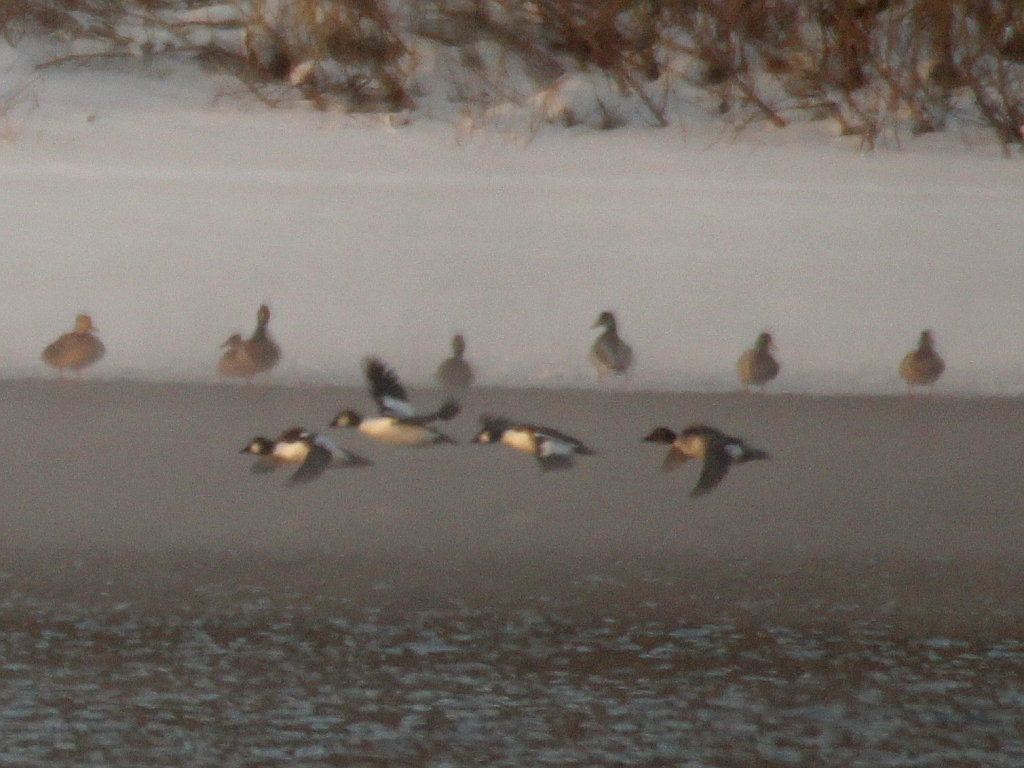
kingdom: Animalia
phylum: Chordata
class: Aves
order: Anseriformes
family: Anatidae
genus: Bucephala
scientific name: Bucephala clangula
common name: Common goldeneye
